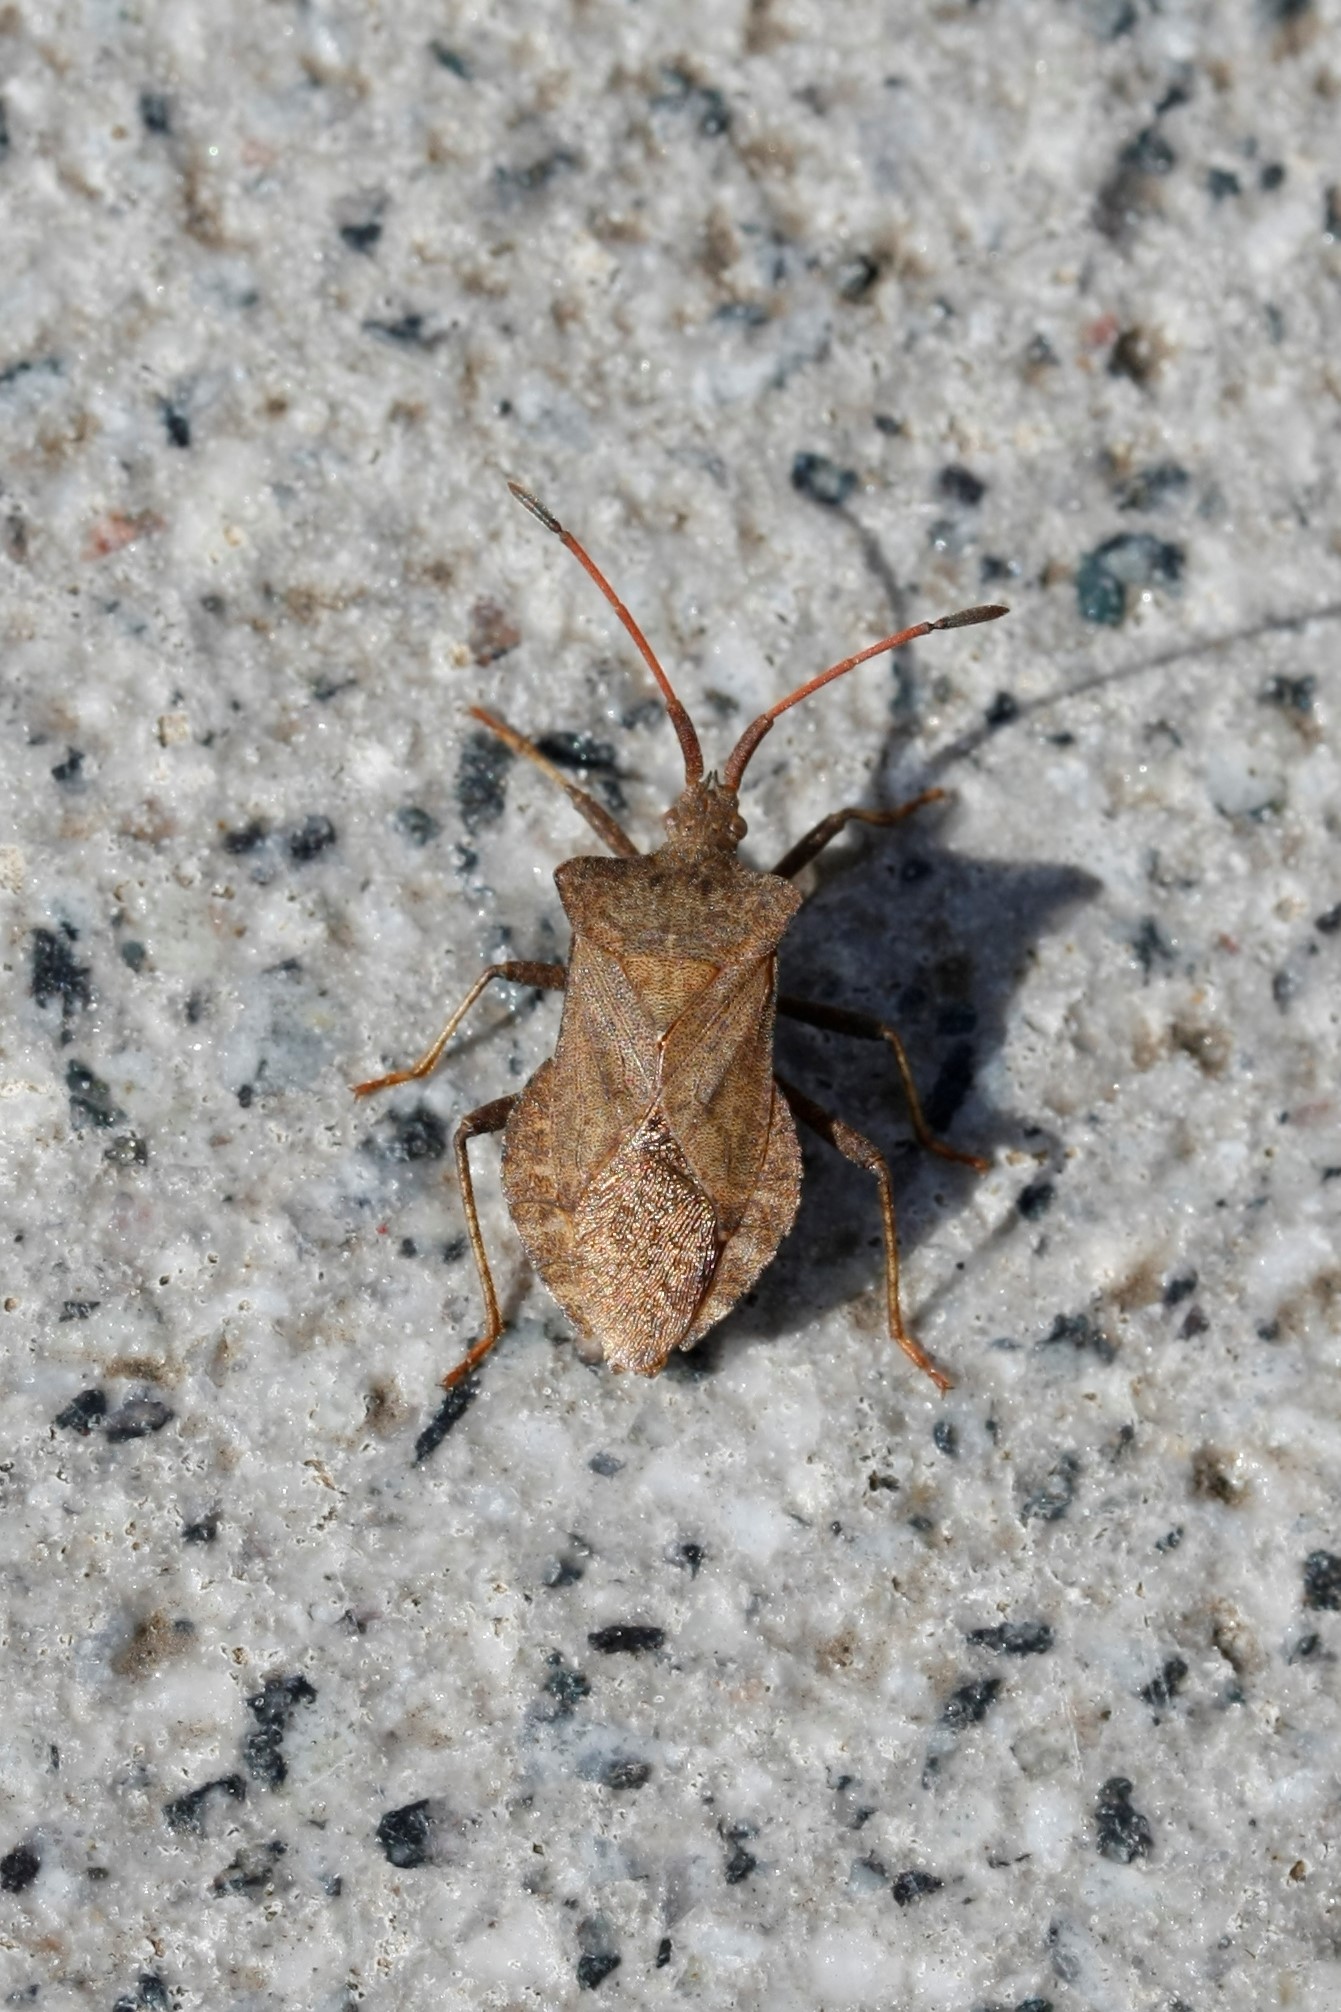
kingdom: Animalia
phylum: Arthropoda
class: Insecta
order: Hemiptera
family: Coreidae
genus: Coreus
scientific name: Coreus marginatus
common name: Dock bug
